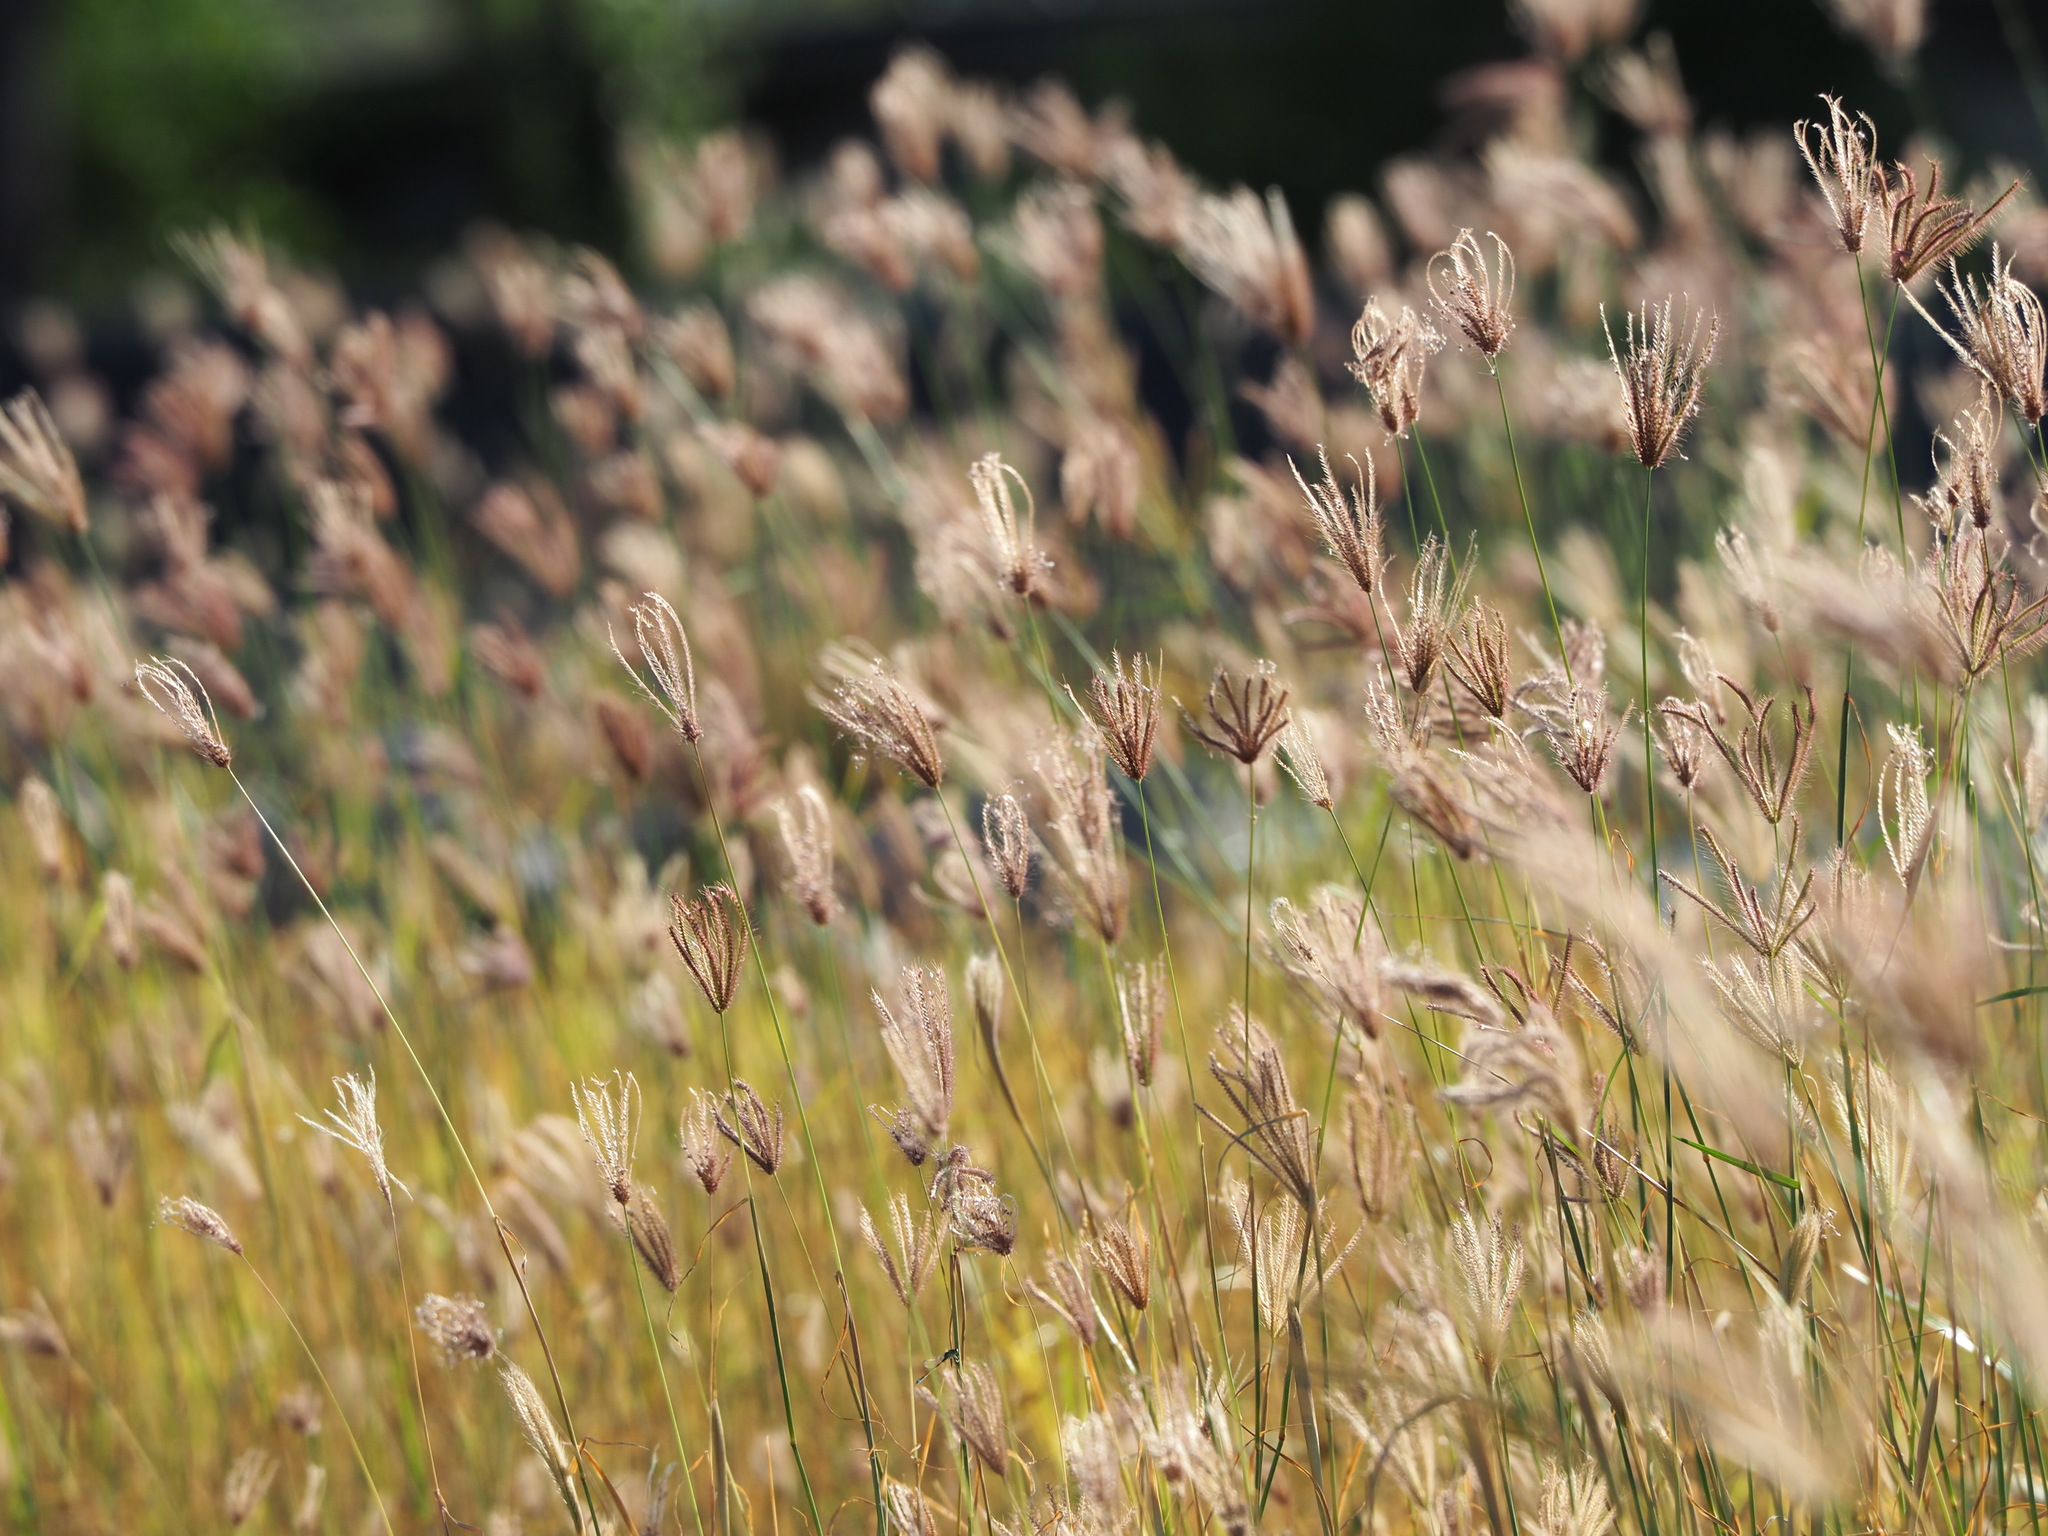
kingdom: Plantae
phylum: Tracheophyta
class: Liliopsida
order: Poales
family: Poaceae
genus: Chloris
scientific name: Chloris barbata
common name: Swollen fingergrass
